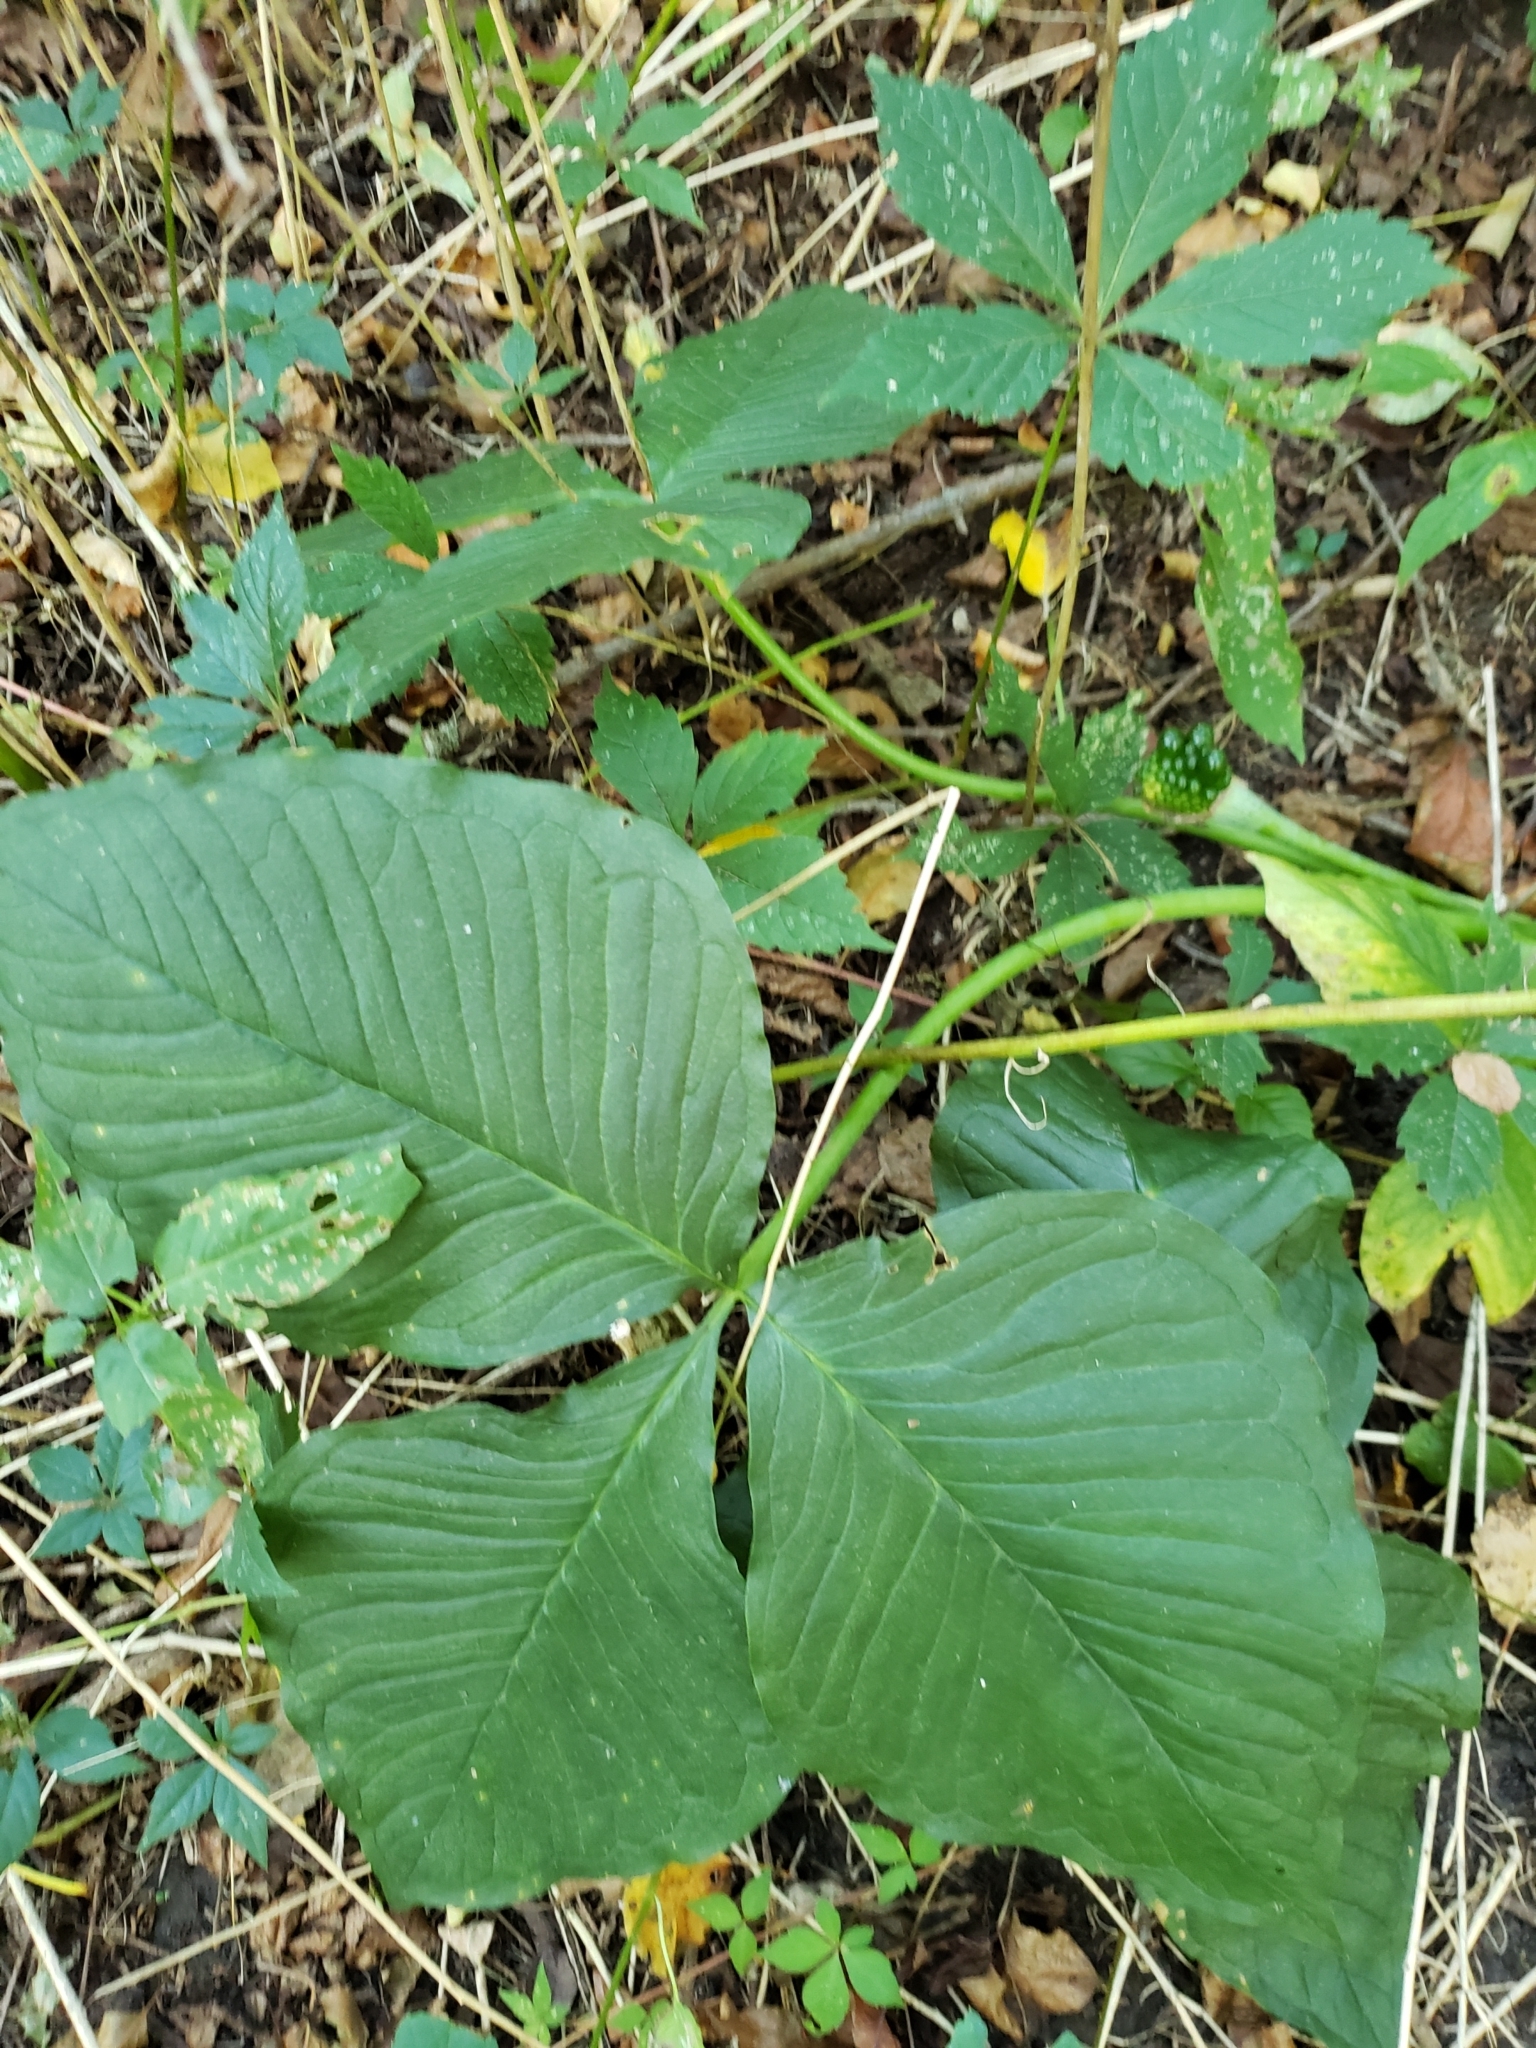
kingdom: Plantae
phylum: Tracheophyta
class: Liliopsida
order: Alismatales
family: Araceae
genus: Arisaema
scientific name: Arisaema triphyllum
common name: Jack-in-the-pulpit
